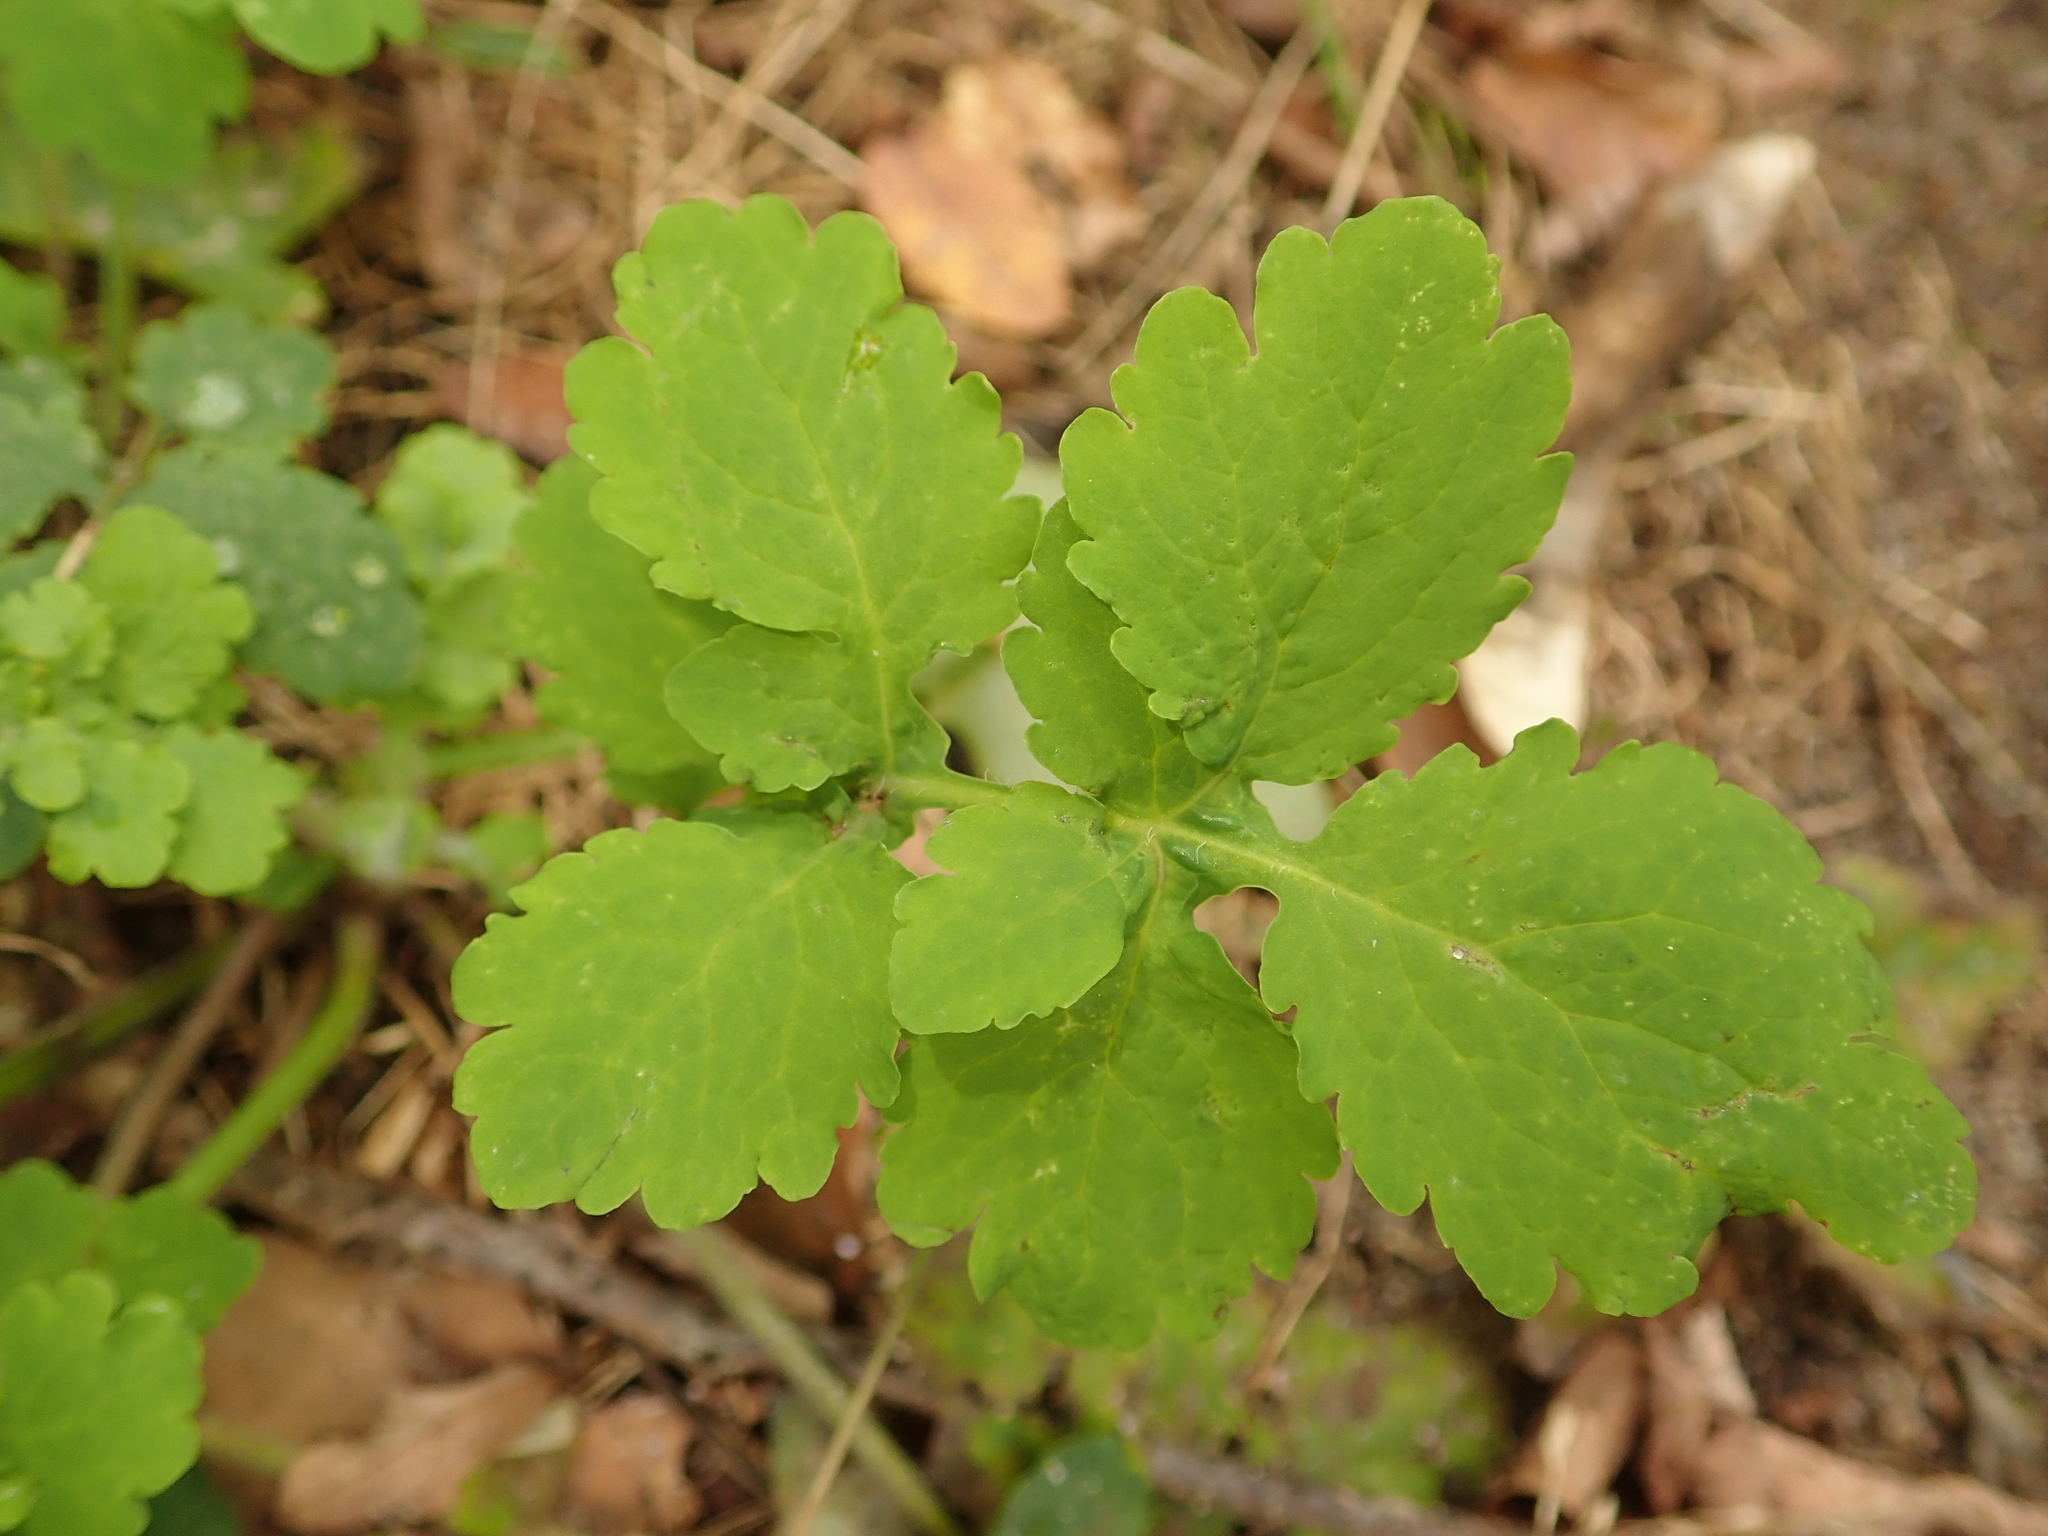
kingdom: Plantae
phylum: Tracheophyta
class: Magnoliopsida
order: Ranunculales
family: Papaveraceae
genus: Chelidonium
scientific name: Chelidonium majus
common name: Greater celandine
